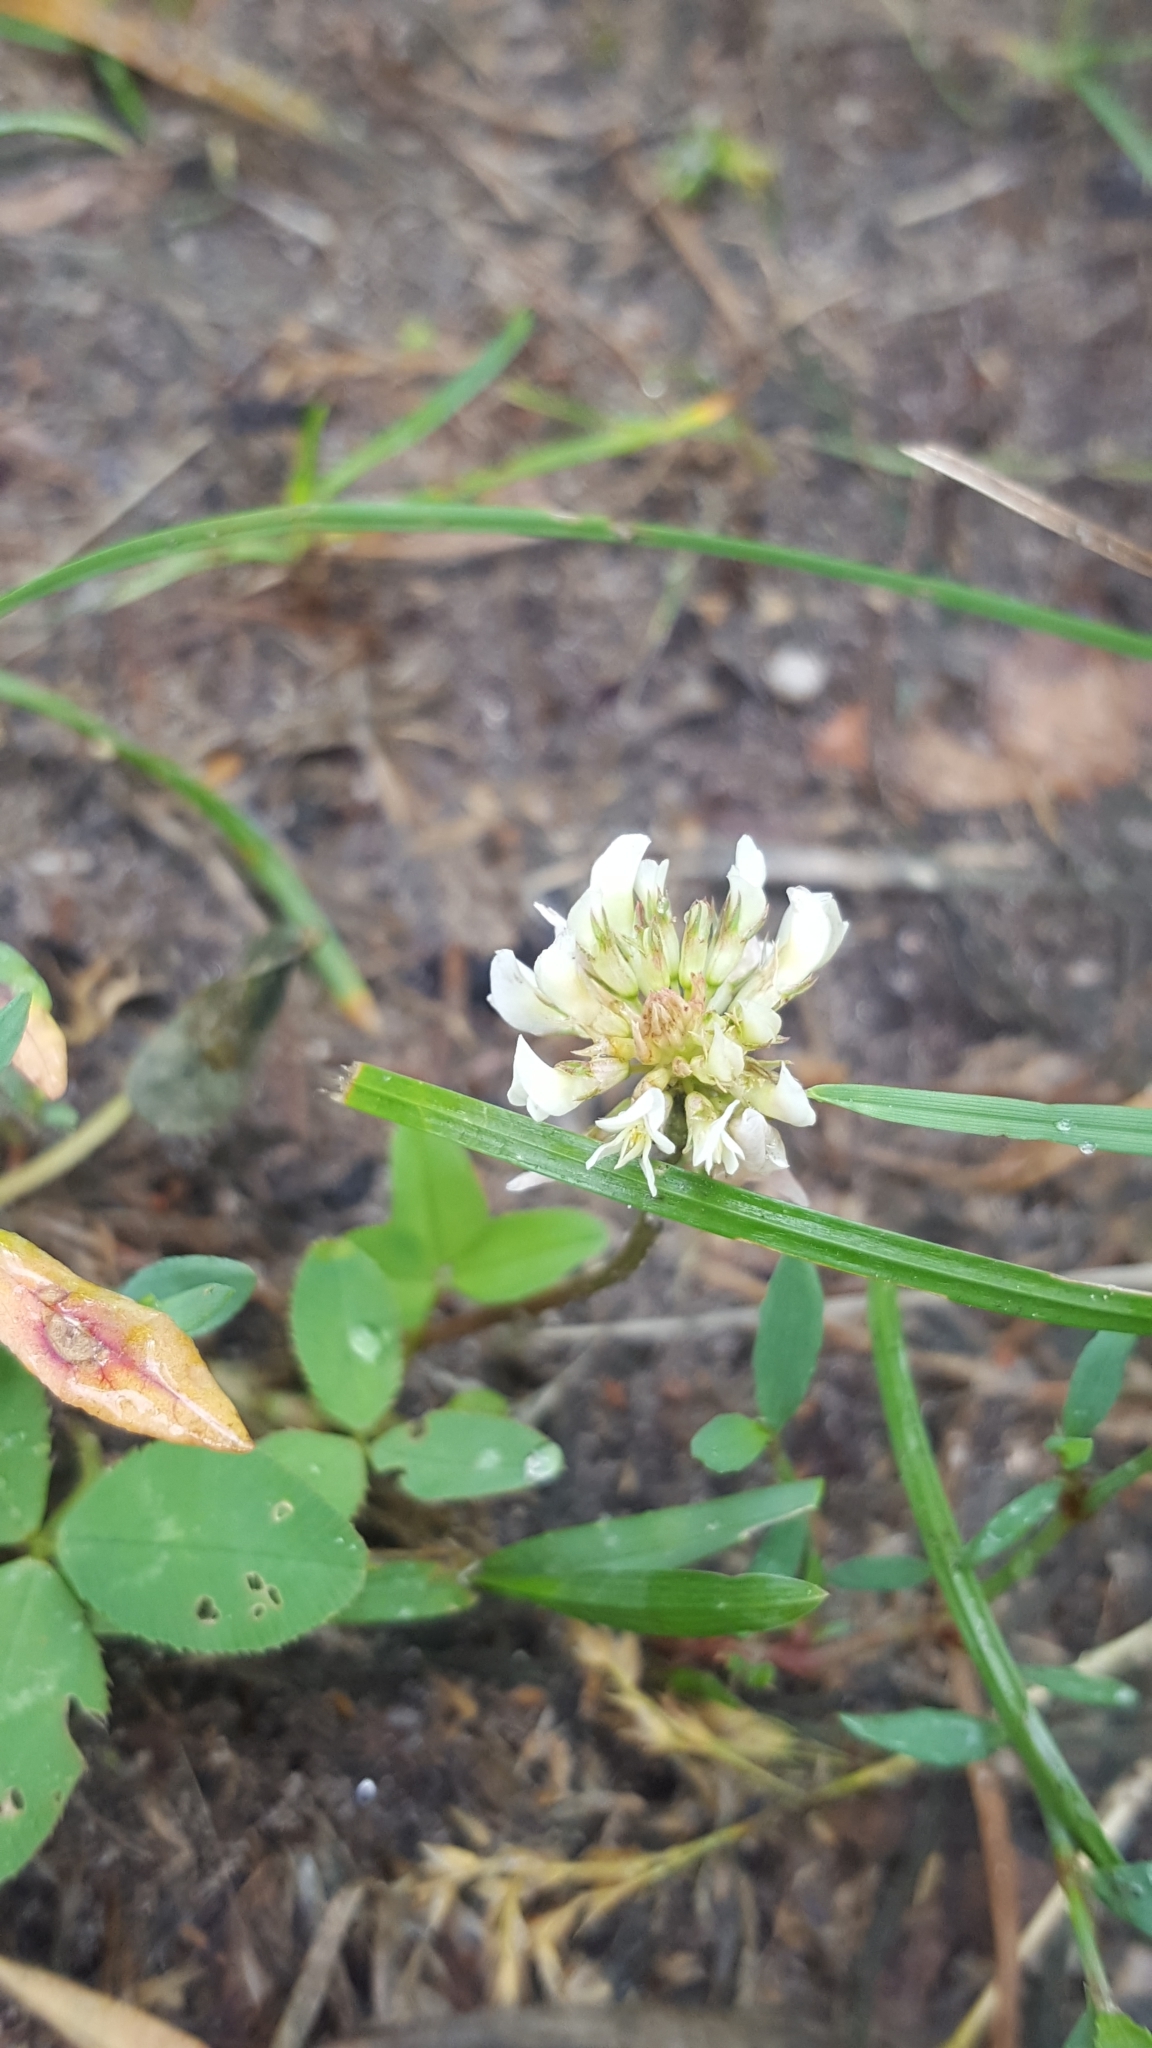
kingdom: Plantae
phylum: Tracheophyta
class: Magnoliopsida
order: Fabales
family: Fabaceae
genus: Trifolium
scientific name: Trifolium repens
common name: White clover
